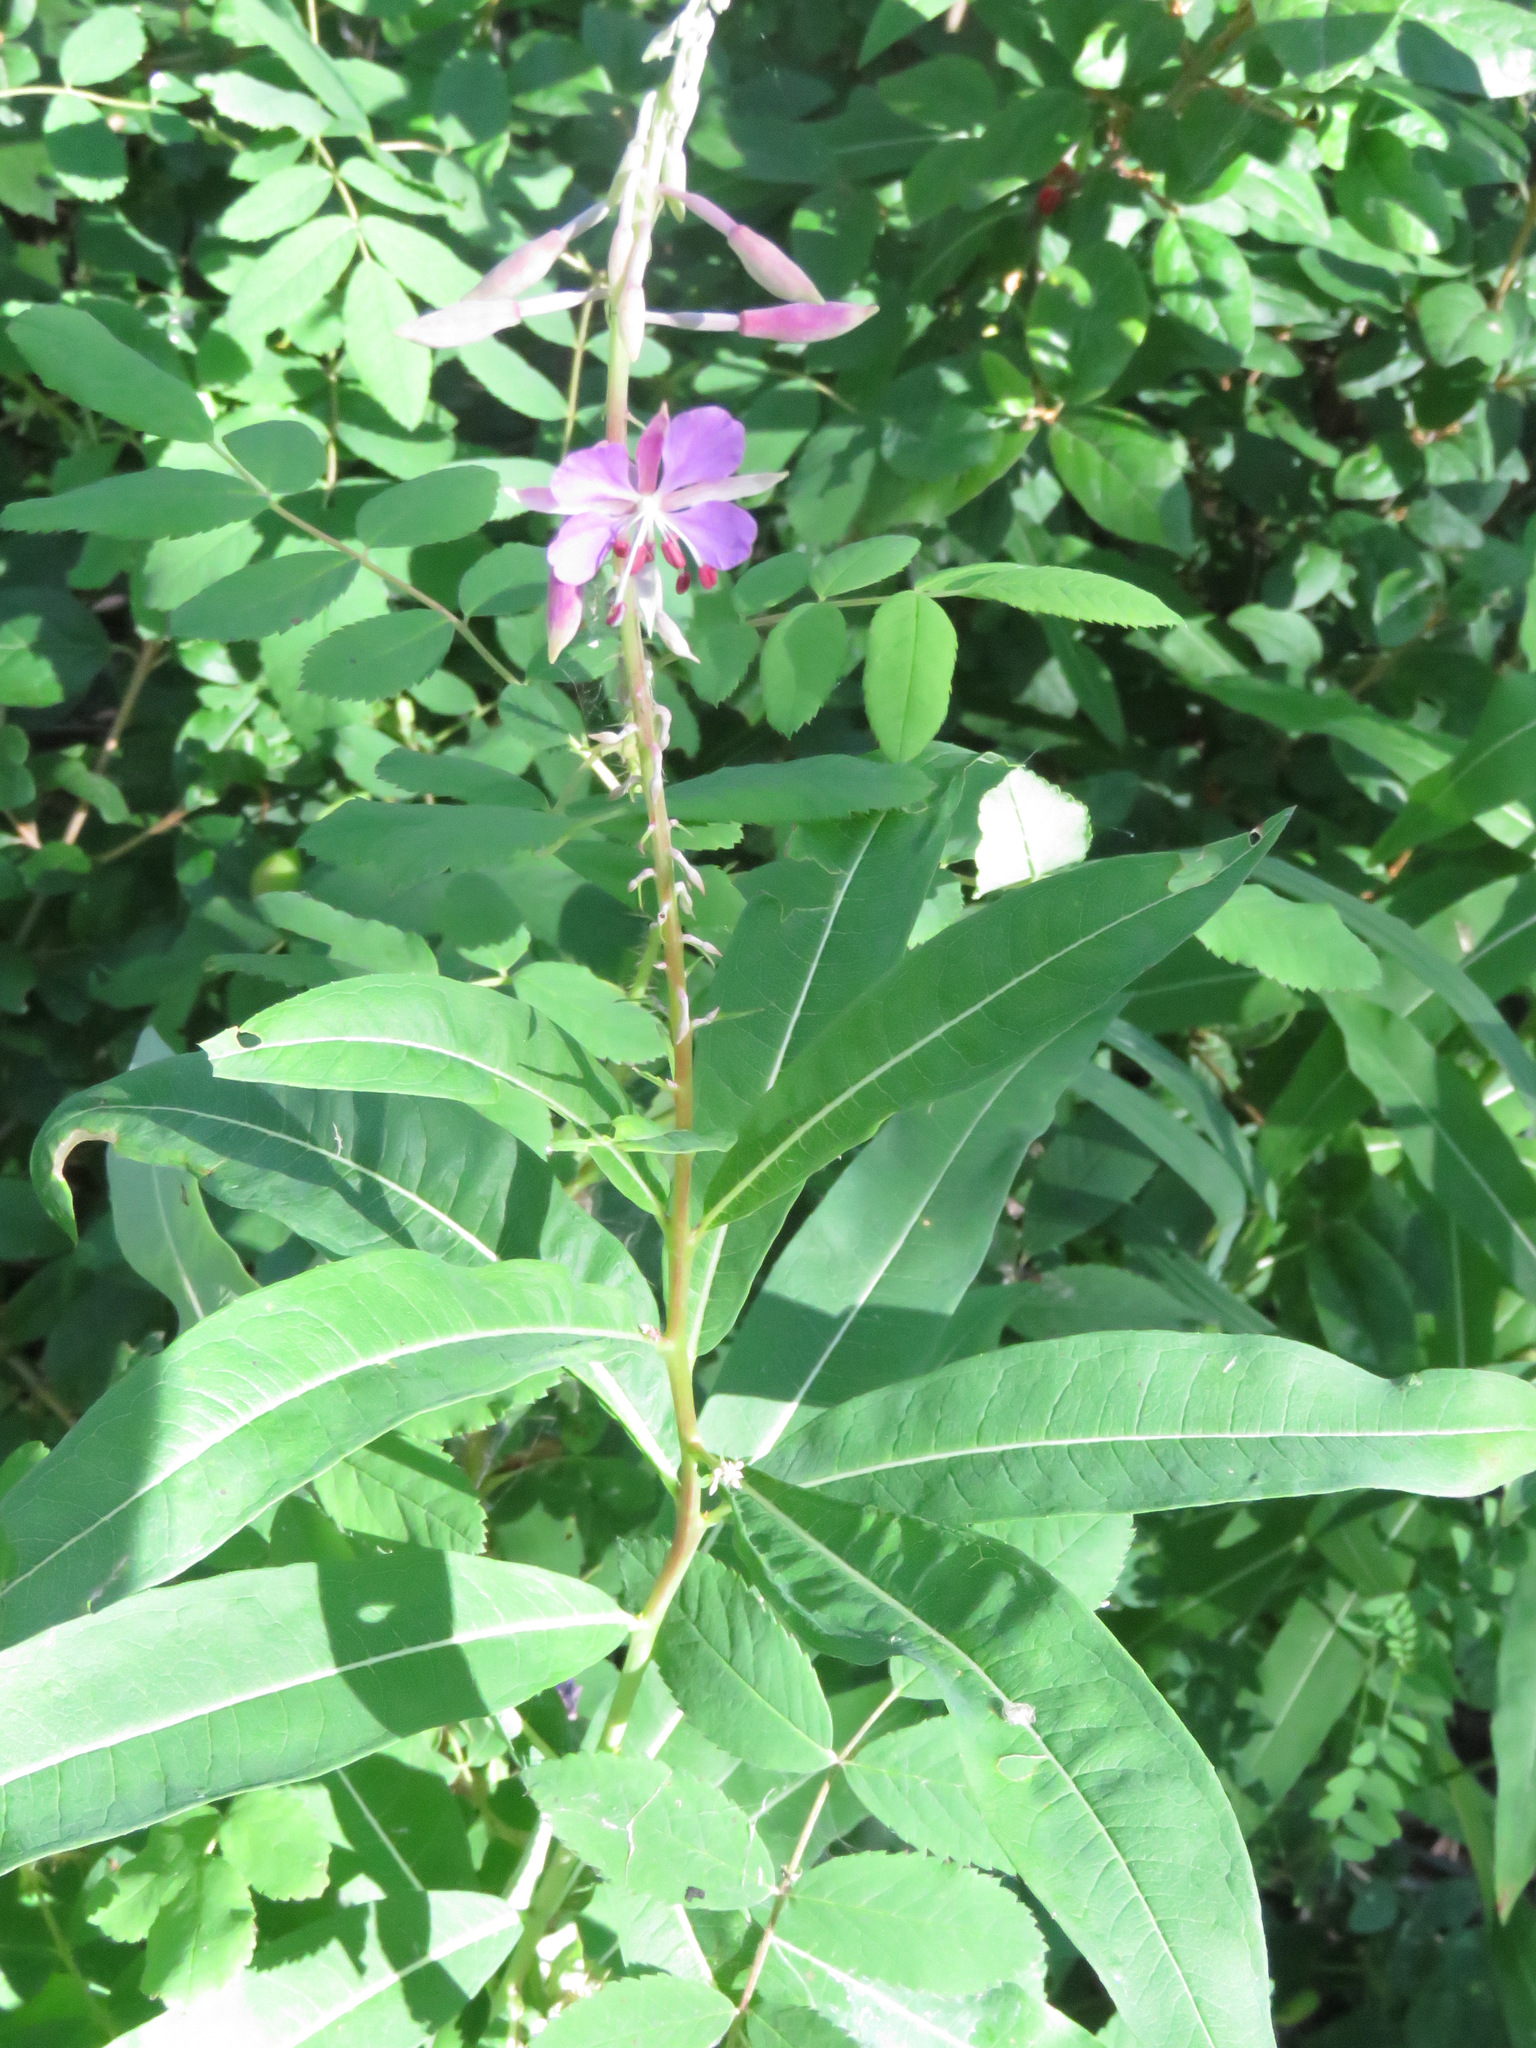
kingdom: Plantae
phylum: Tracheophyta
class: Magnoliopsida
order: Myrtales
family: Onagraceae
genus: Chamaenerion
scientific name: Chamaenerion angustifolium
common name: Fireweed
